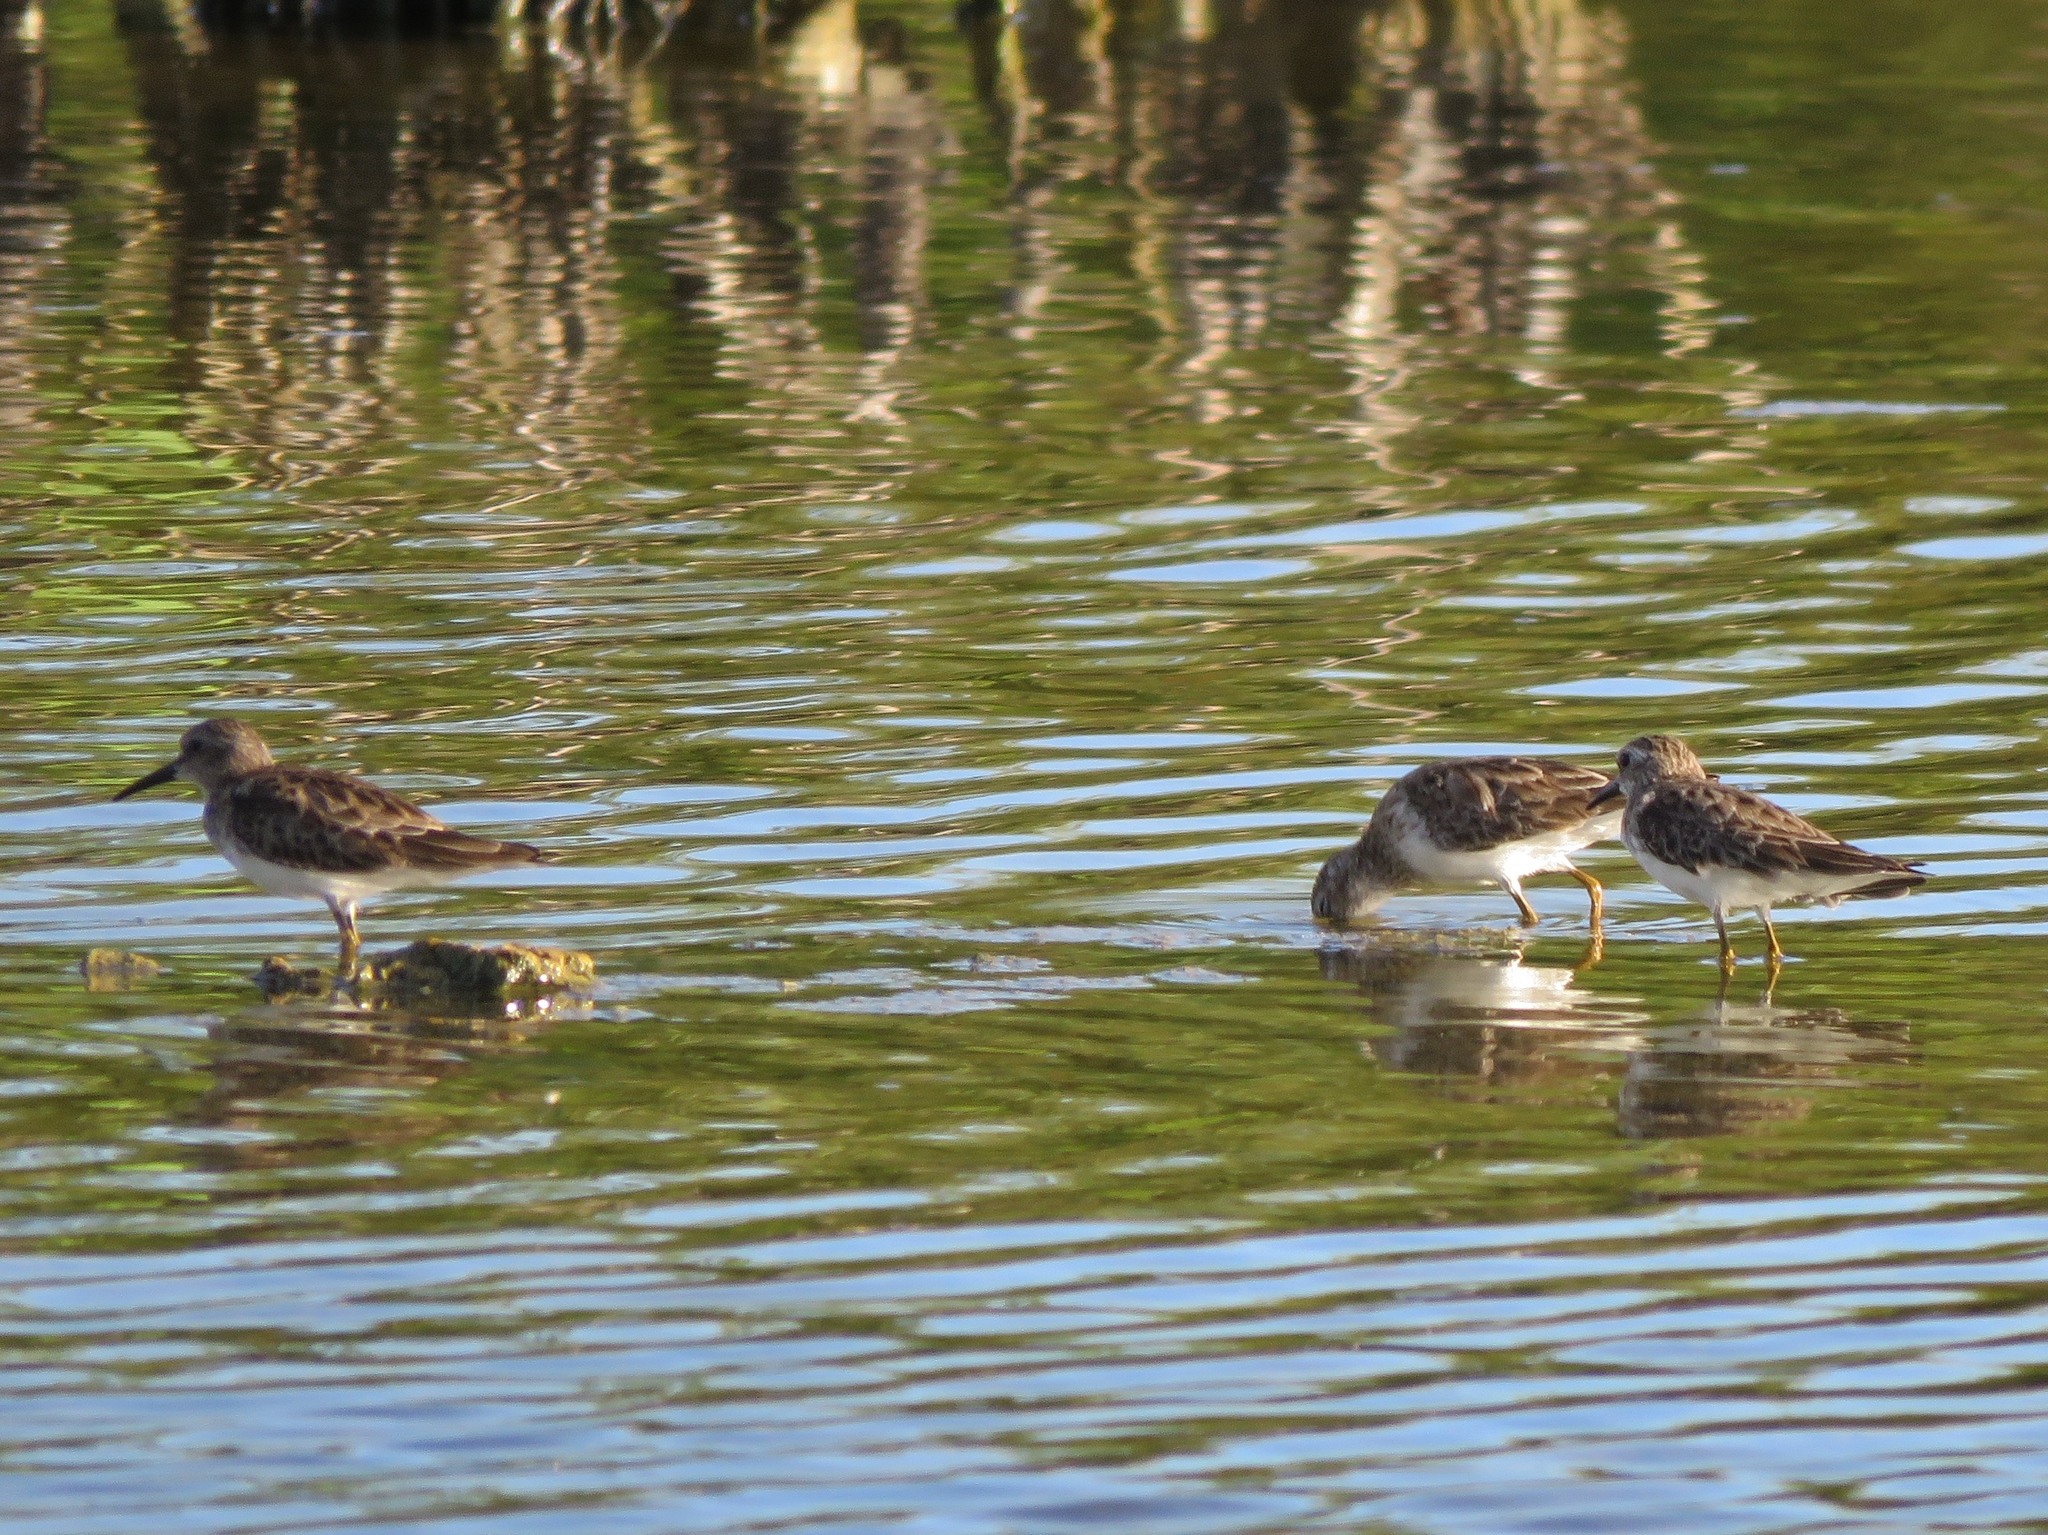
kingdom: Animalia
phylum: Chordata
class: Aves
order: Charadriiformes
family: Scolopacidae
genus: Calidris
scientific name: Calidris minutilla
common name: Least sandpiper
